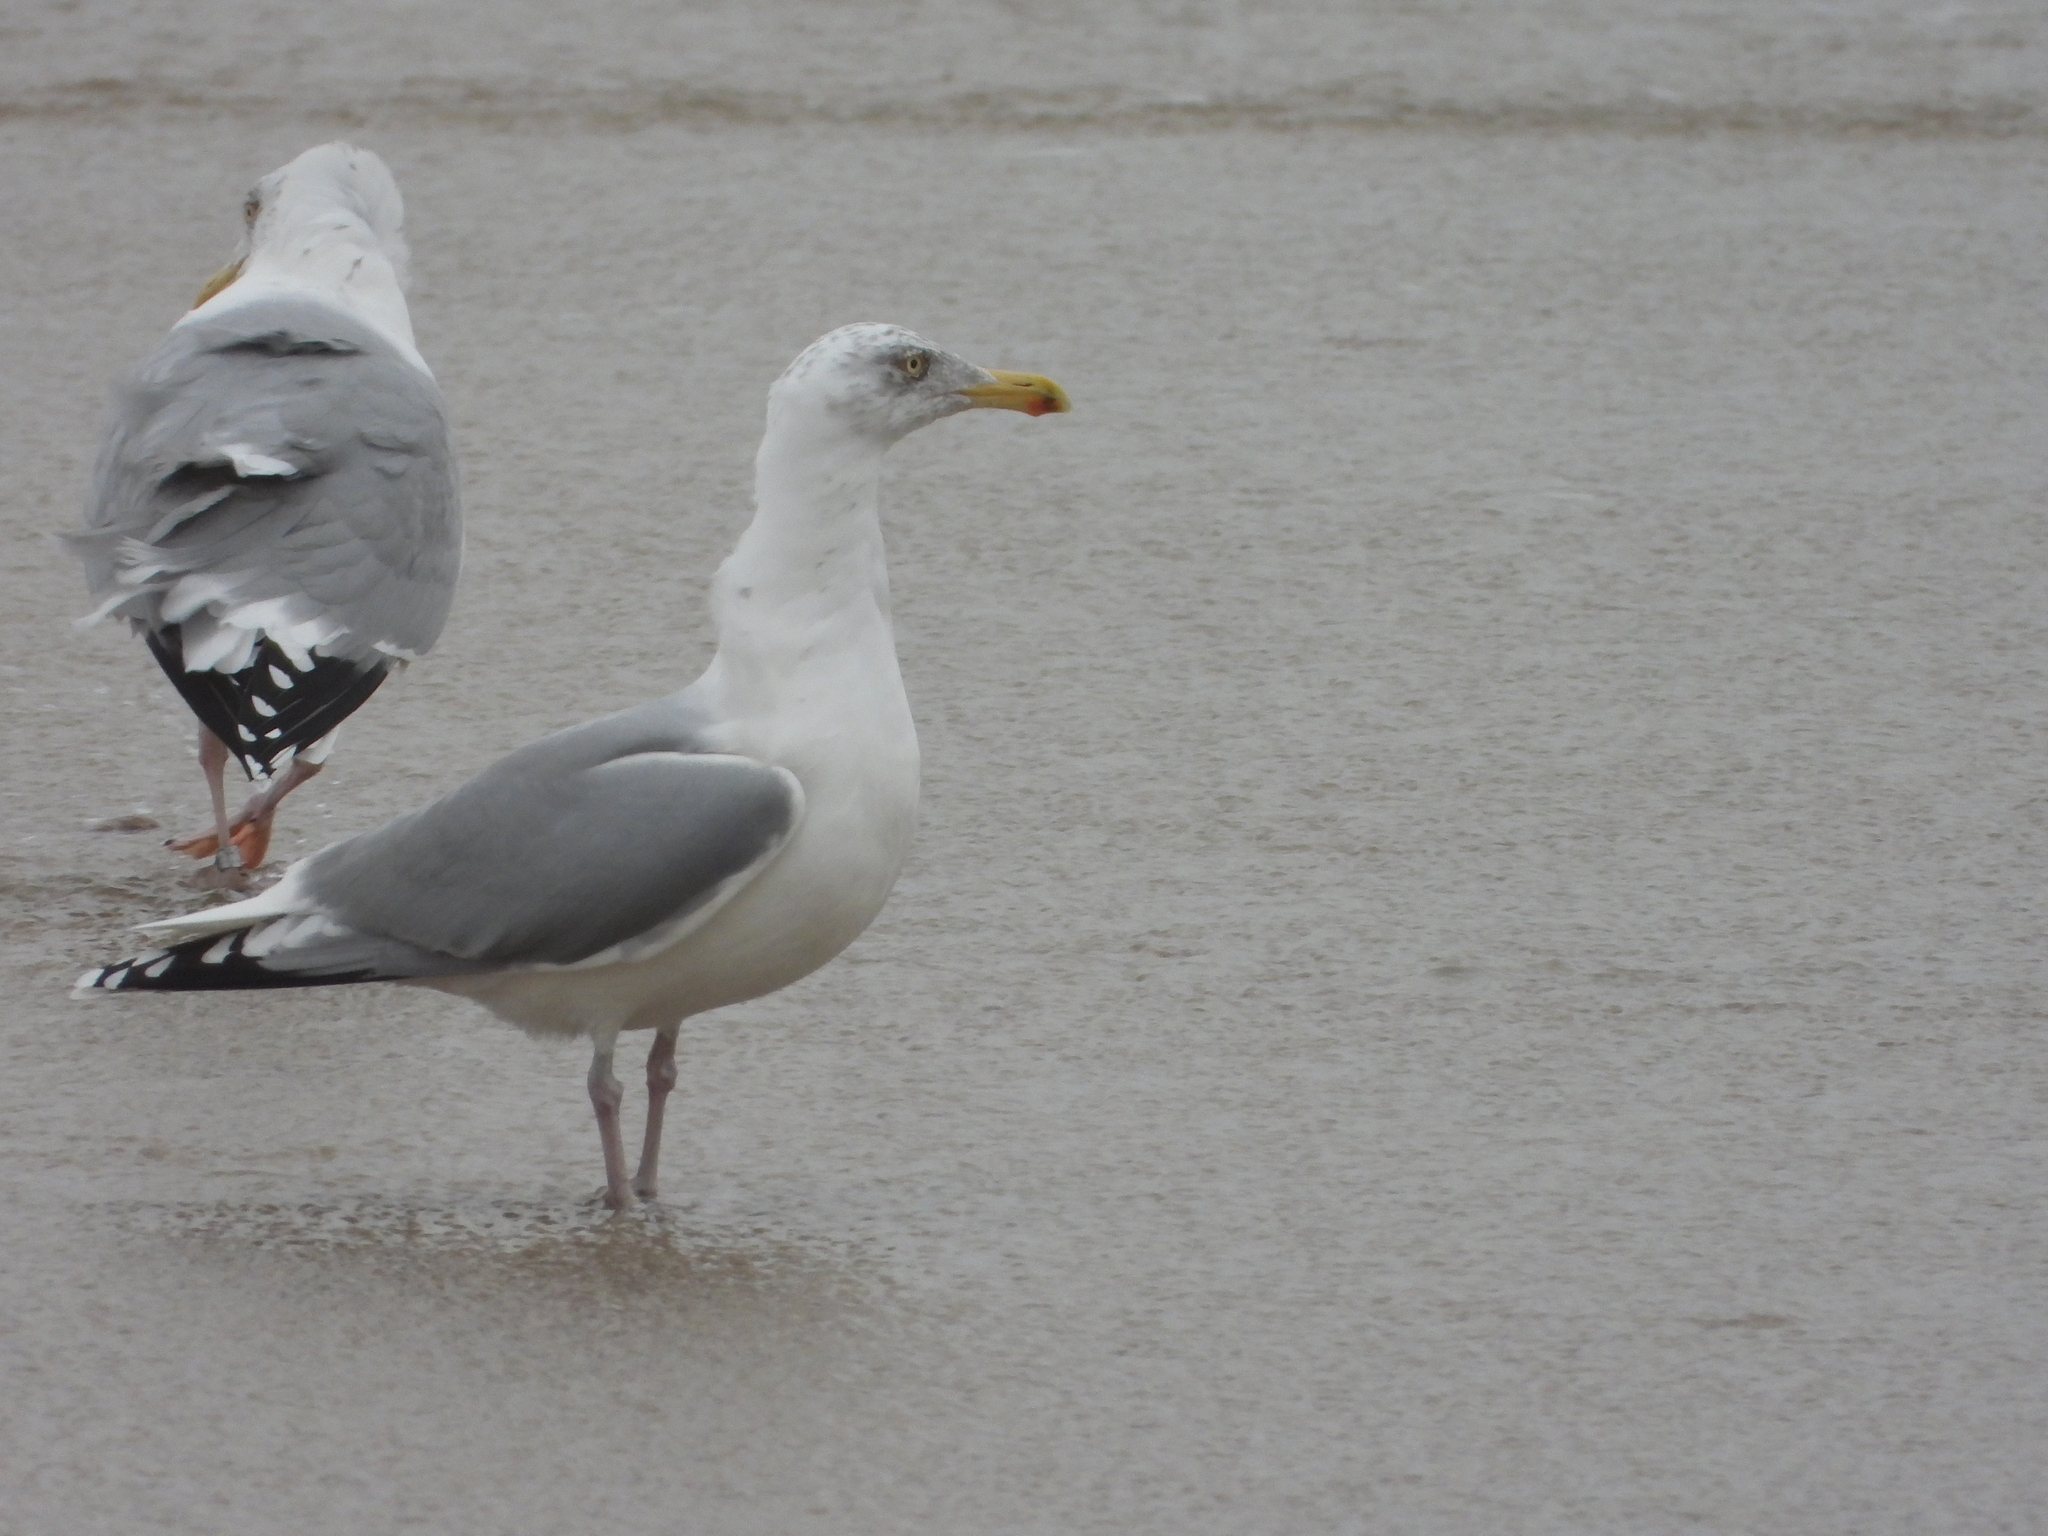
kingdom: Animalia
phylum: Chordata
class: Aves
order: Charadriiformes
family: Laridae
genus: Larus
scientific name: Larus argentatus
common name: Herring gull
